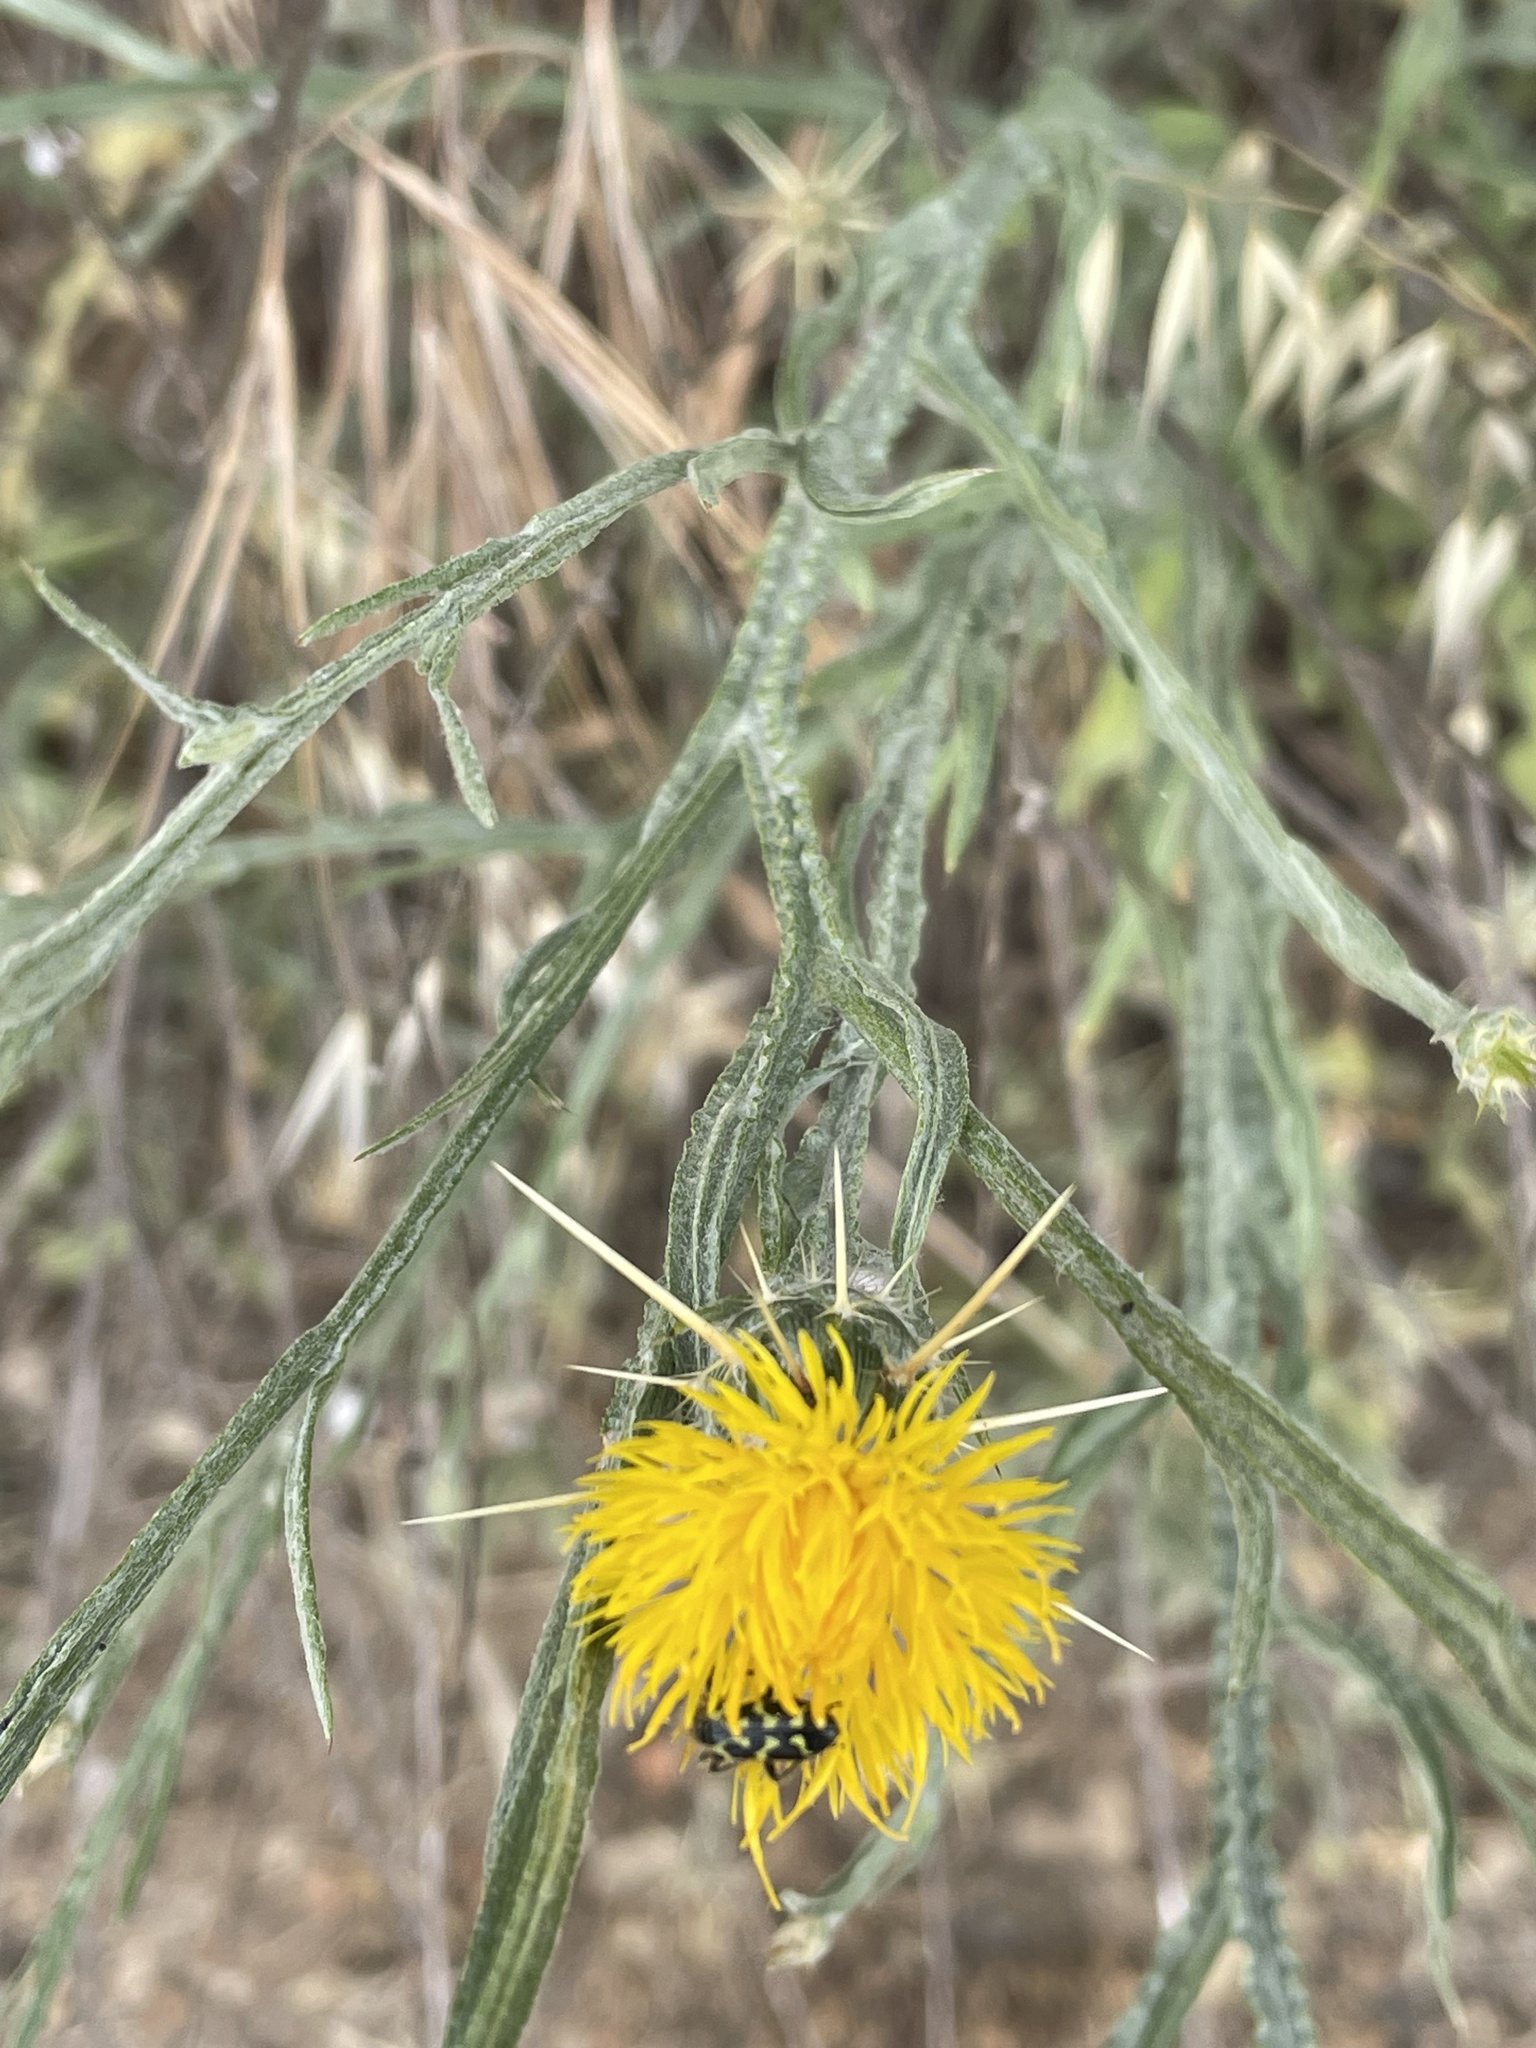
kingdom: Plantae
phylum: Tracheophyta
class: Magnoliopsida
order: Asterales
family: Asteraceae
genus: Centaurea
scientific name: Centaurea solstitialis
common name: Yellow star-thistle
